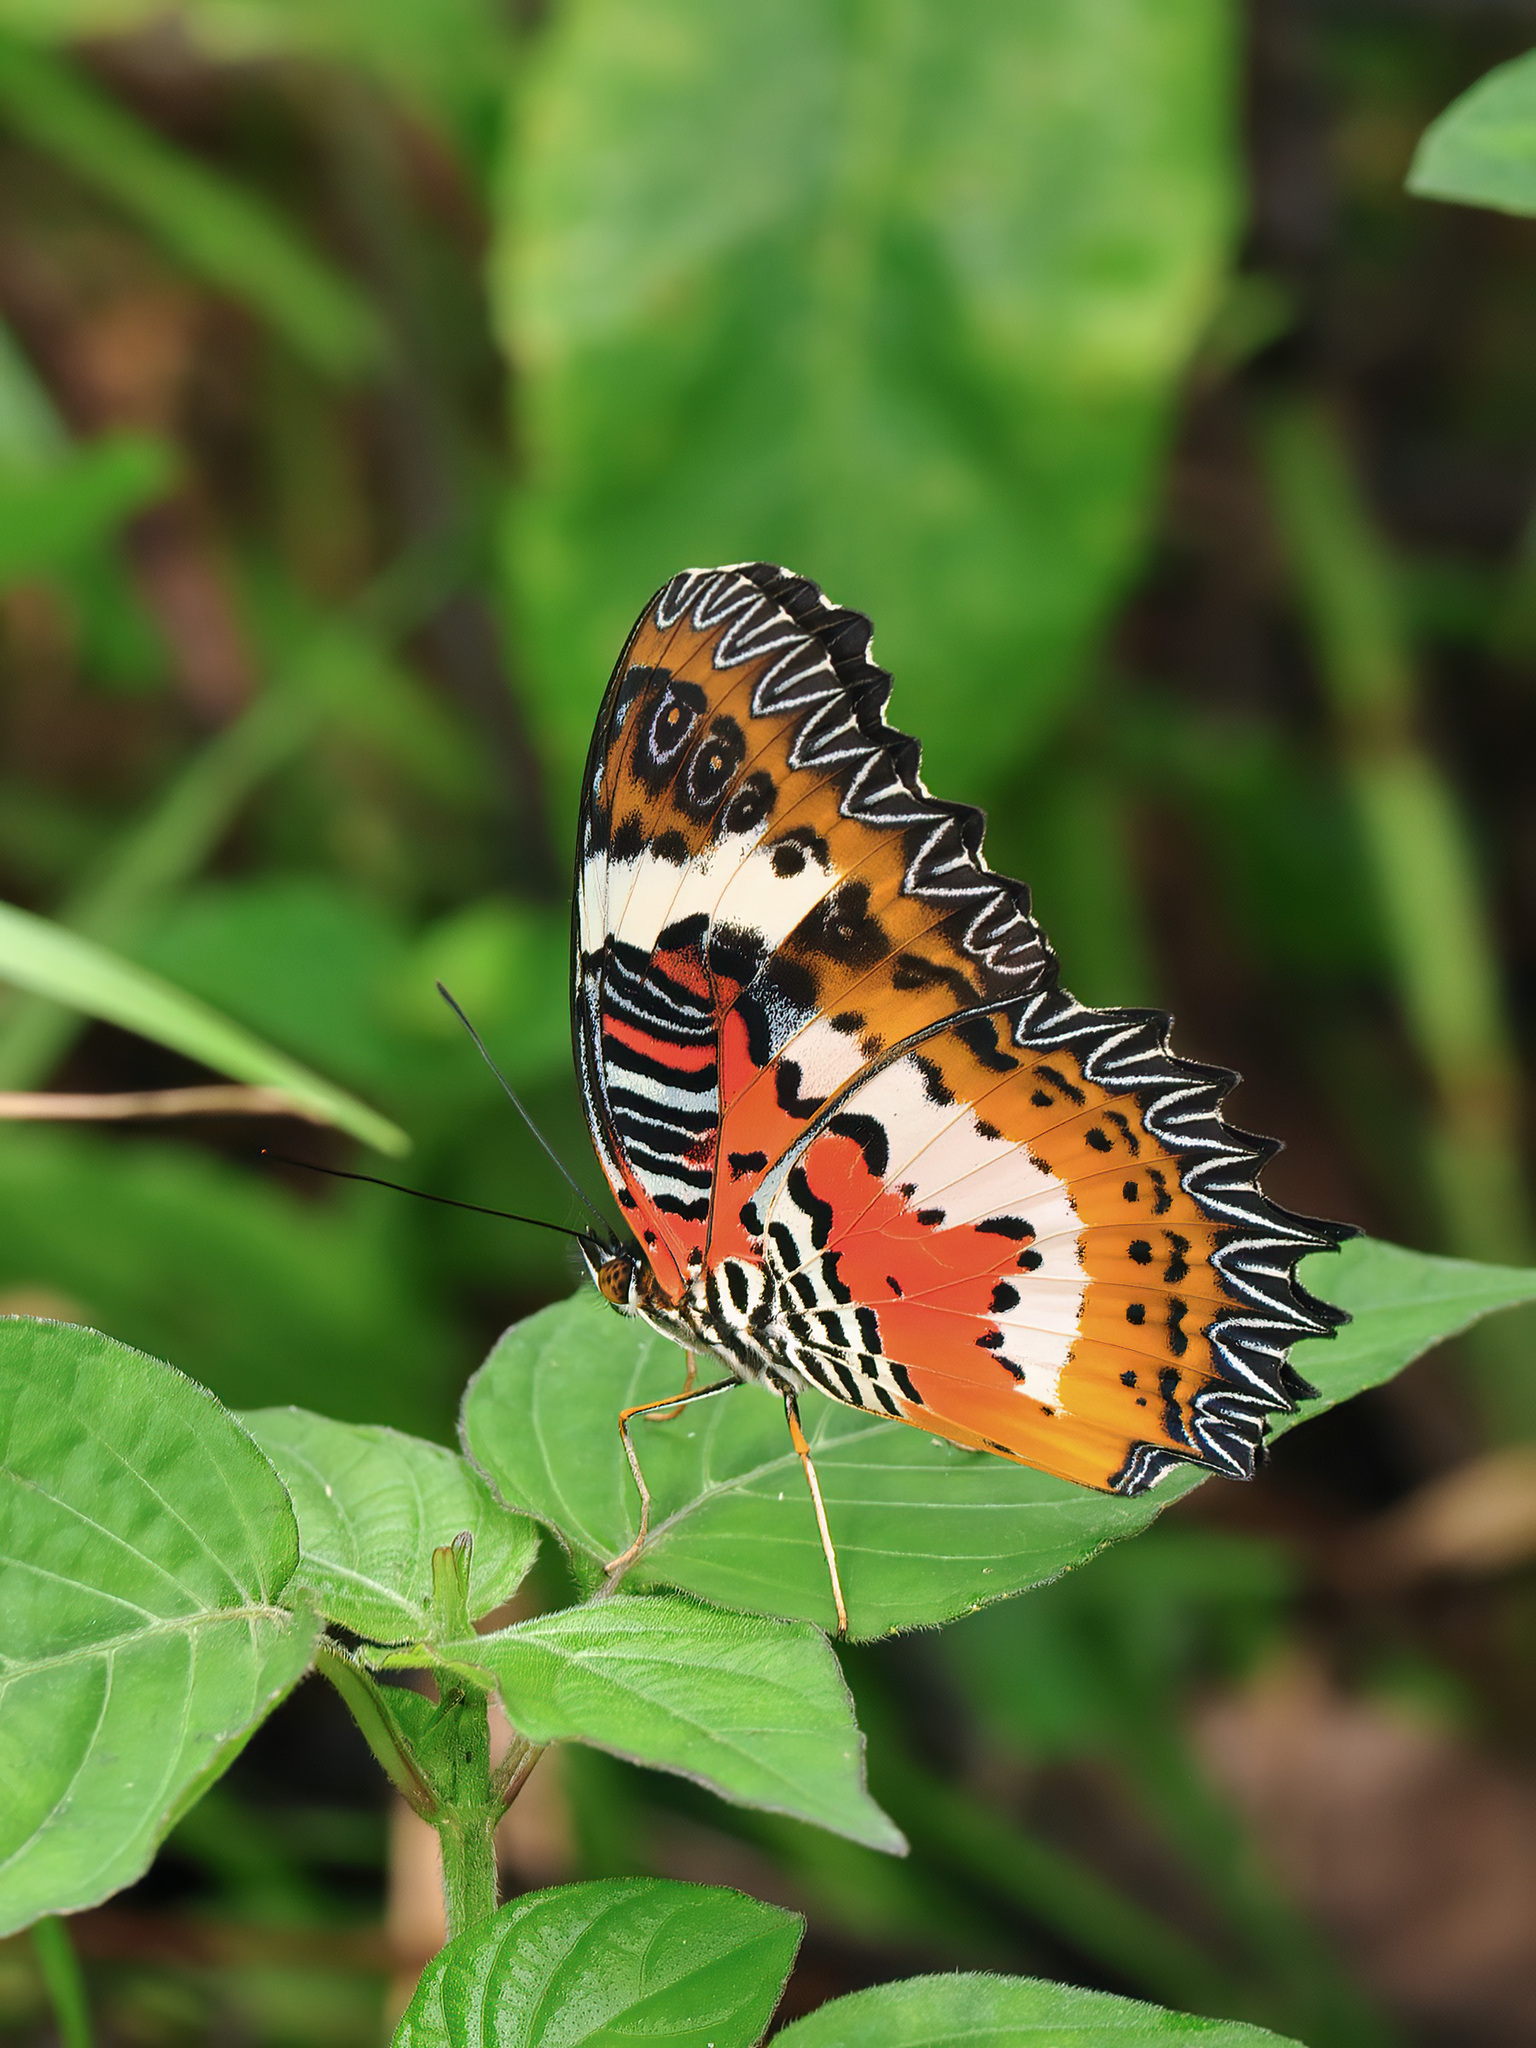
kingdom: Animalia
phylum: Arthropoda
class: Insecta
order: Lepidoptera
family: Nymphalidae
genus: Cethosia
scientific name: Cethosia hypsea
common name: Malayan lacewing butterfly
